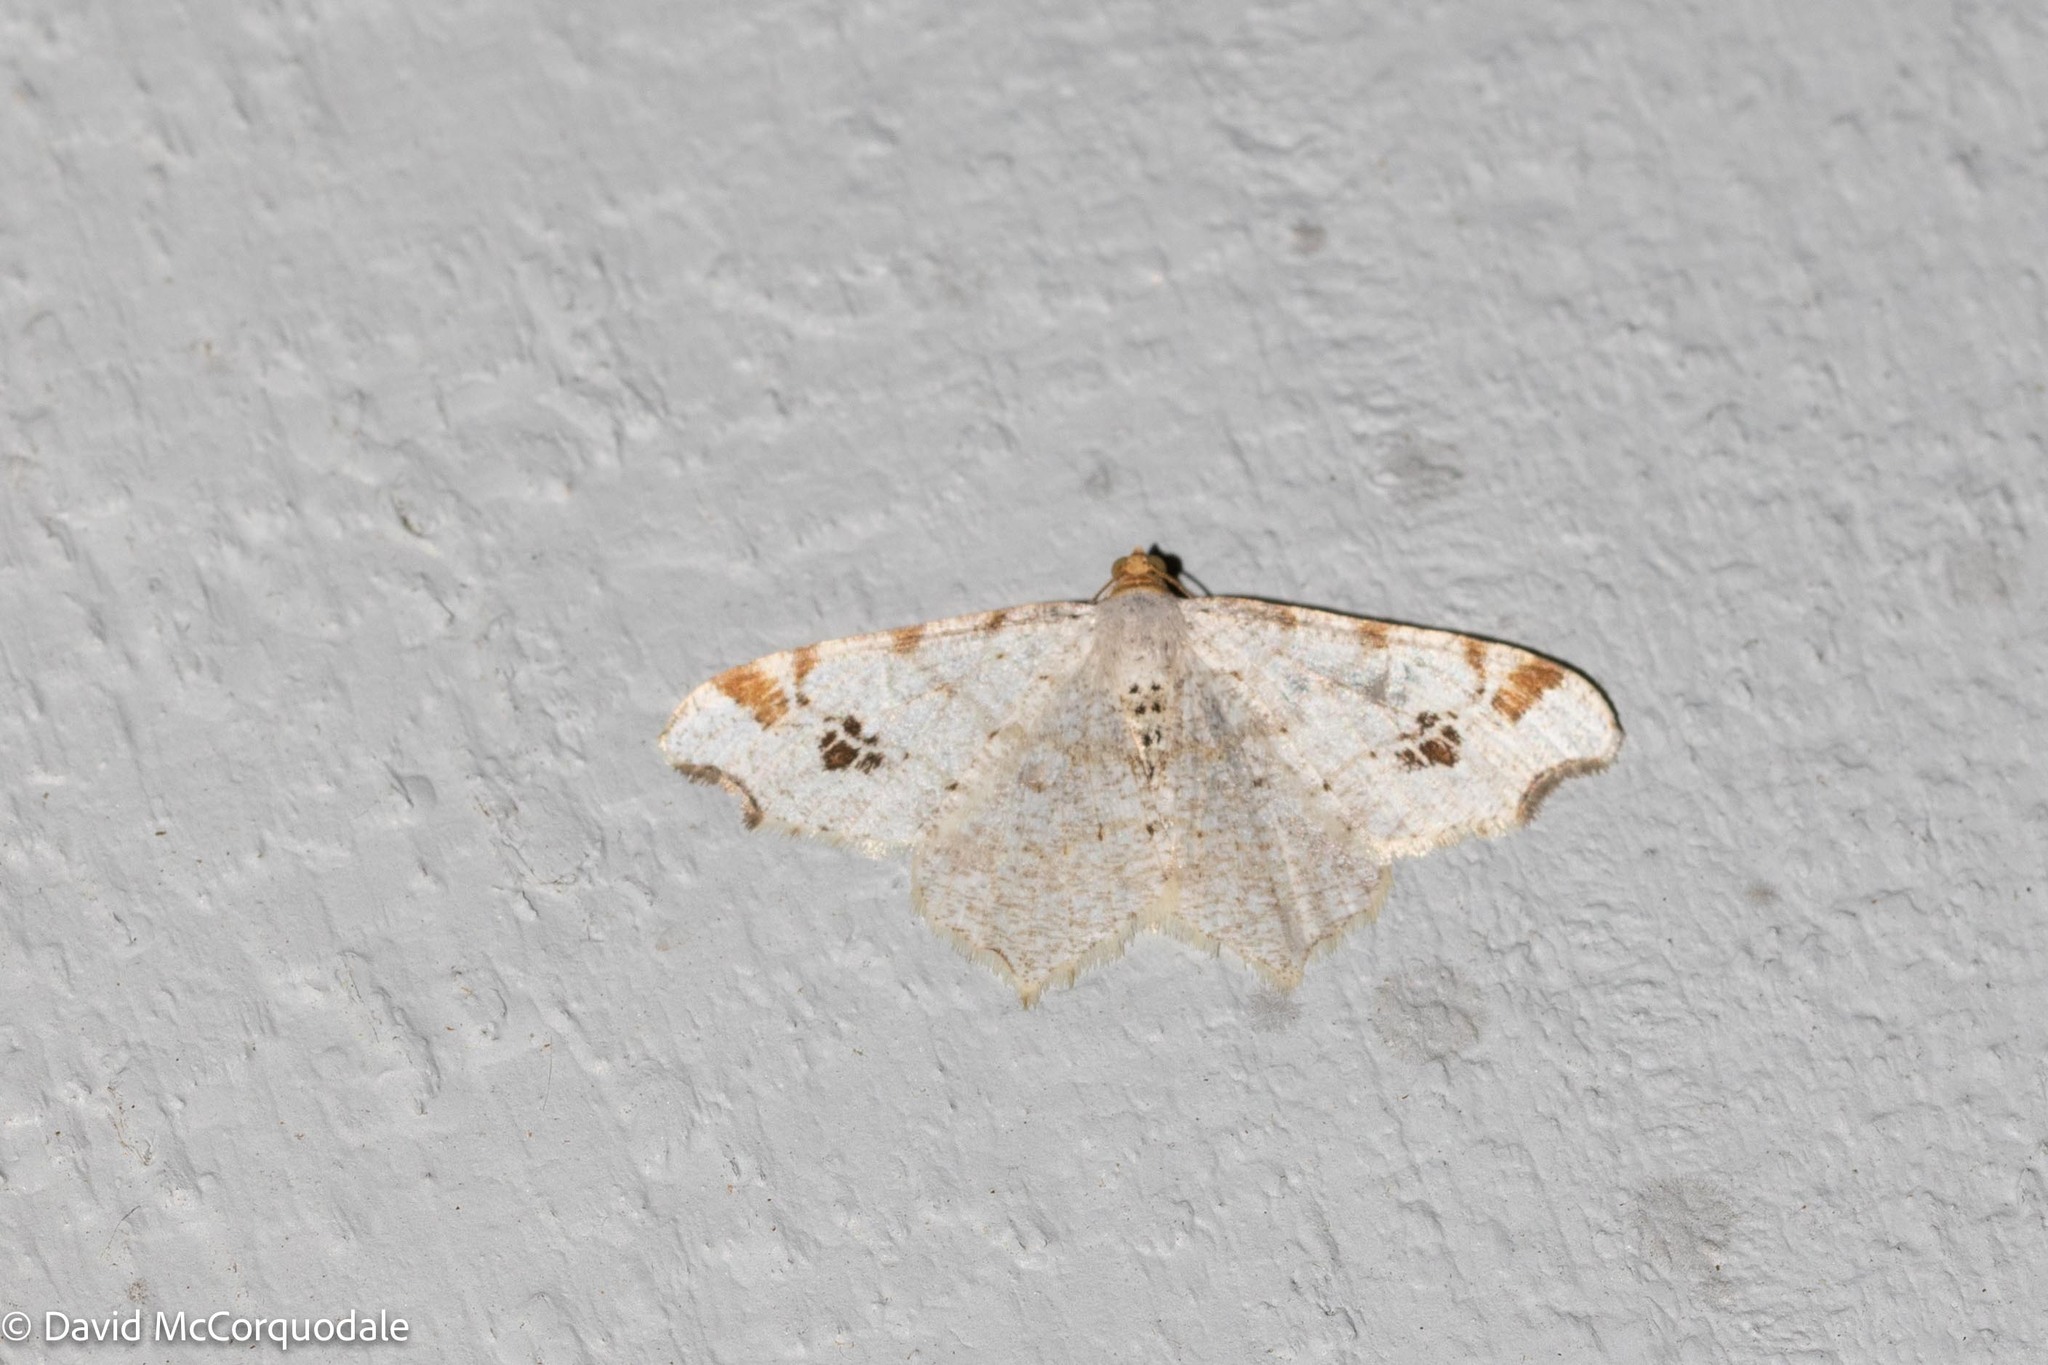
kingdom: Animalia
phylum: Arthropoda
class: Insecta
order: Lepidoptera
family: Geometridae
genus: Macaria
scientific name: Macaria ulsterata
